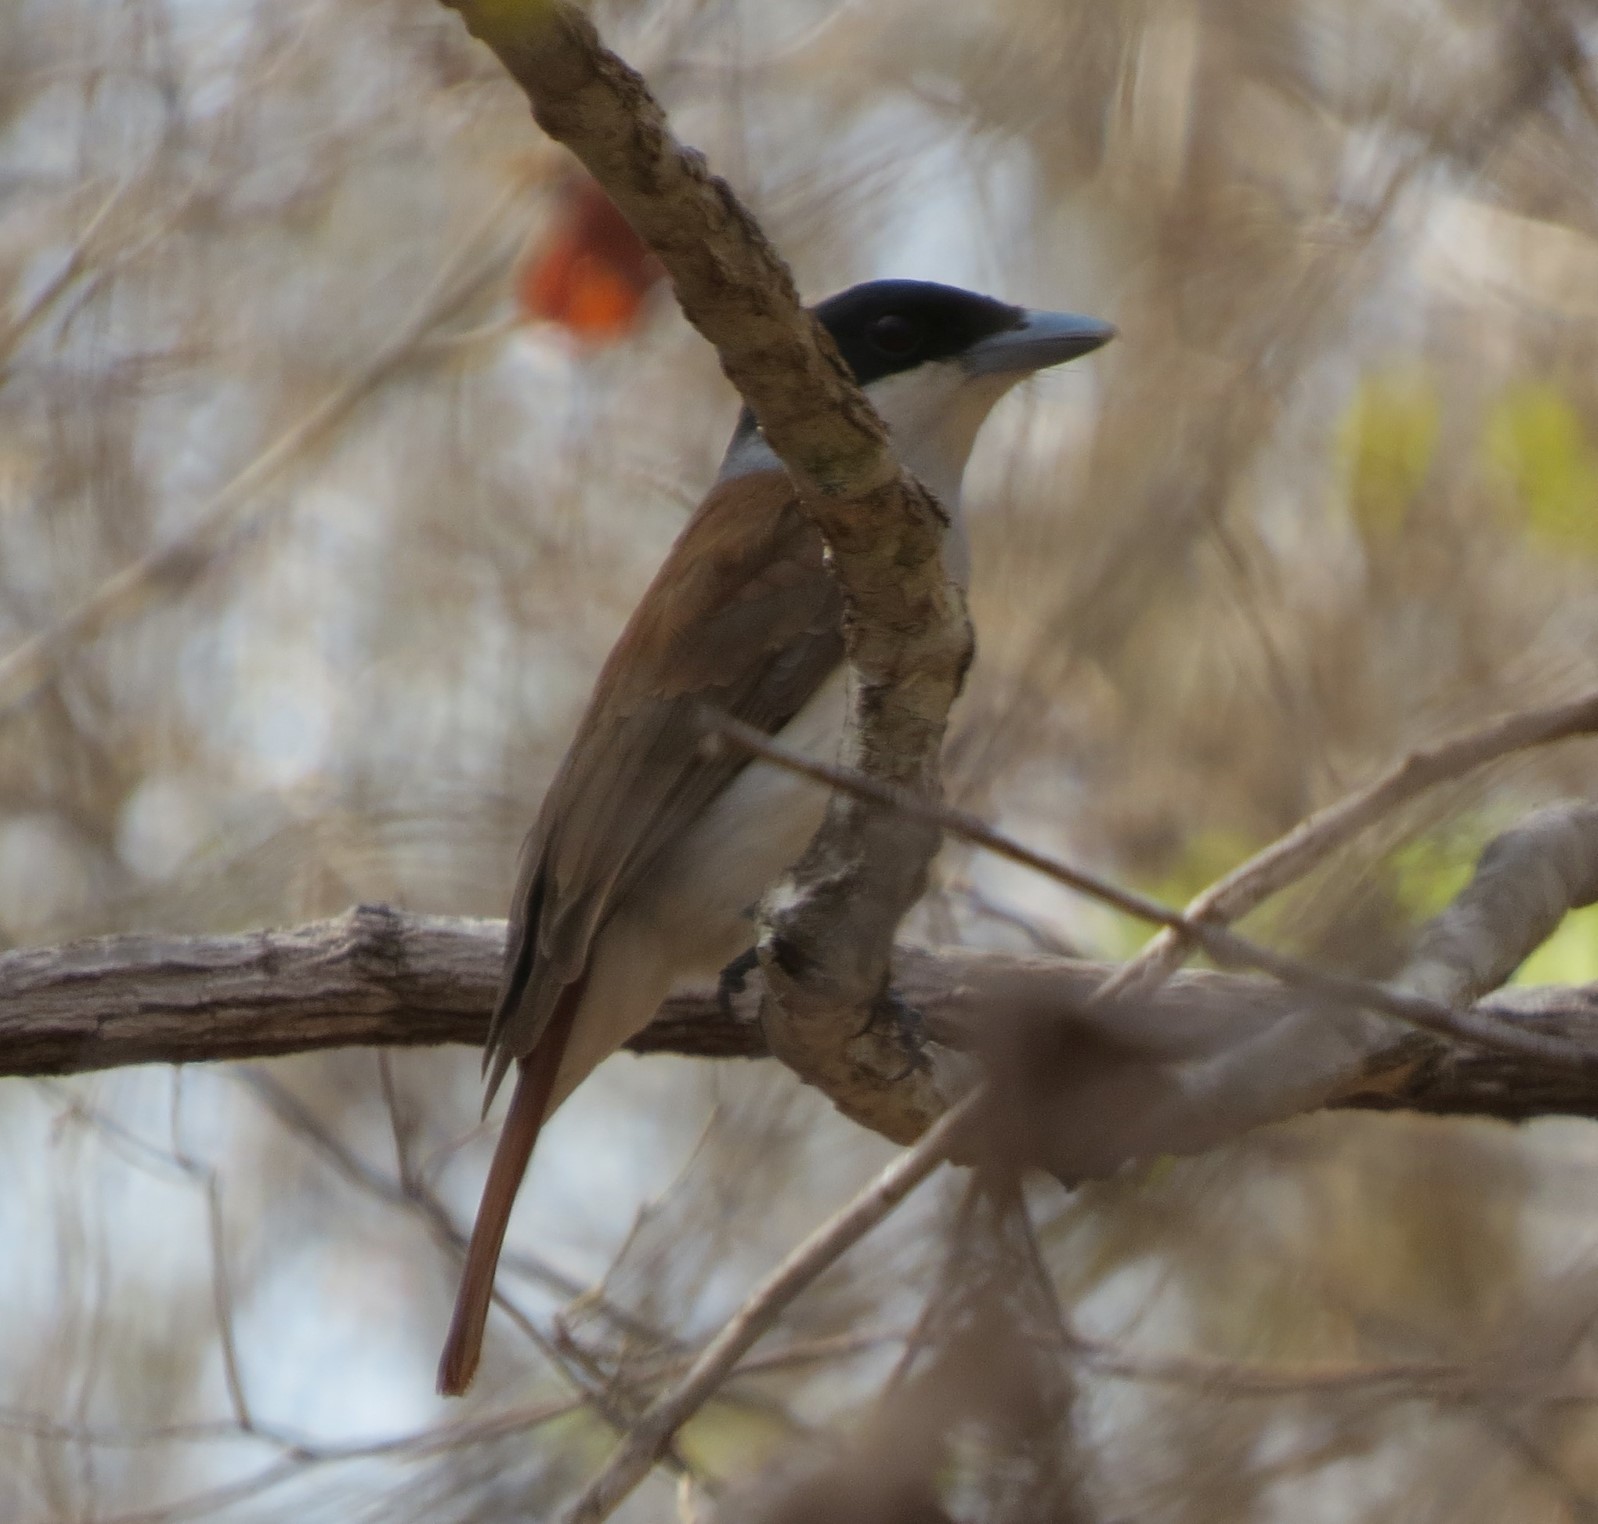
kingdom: Animalia
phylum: Chordata
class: Aves
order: Passeriformes
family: Vangidae
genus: Schetba
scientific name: Schetba rufa
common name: Rufous vanga
